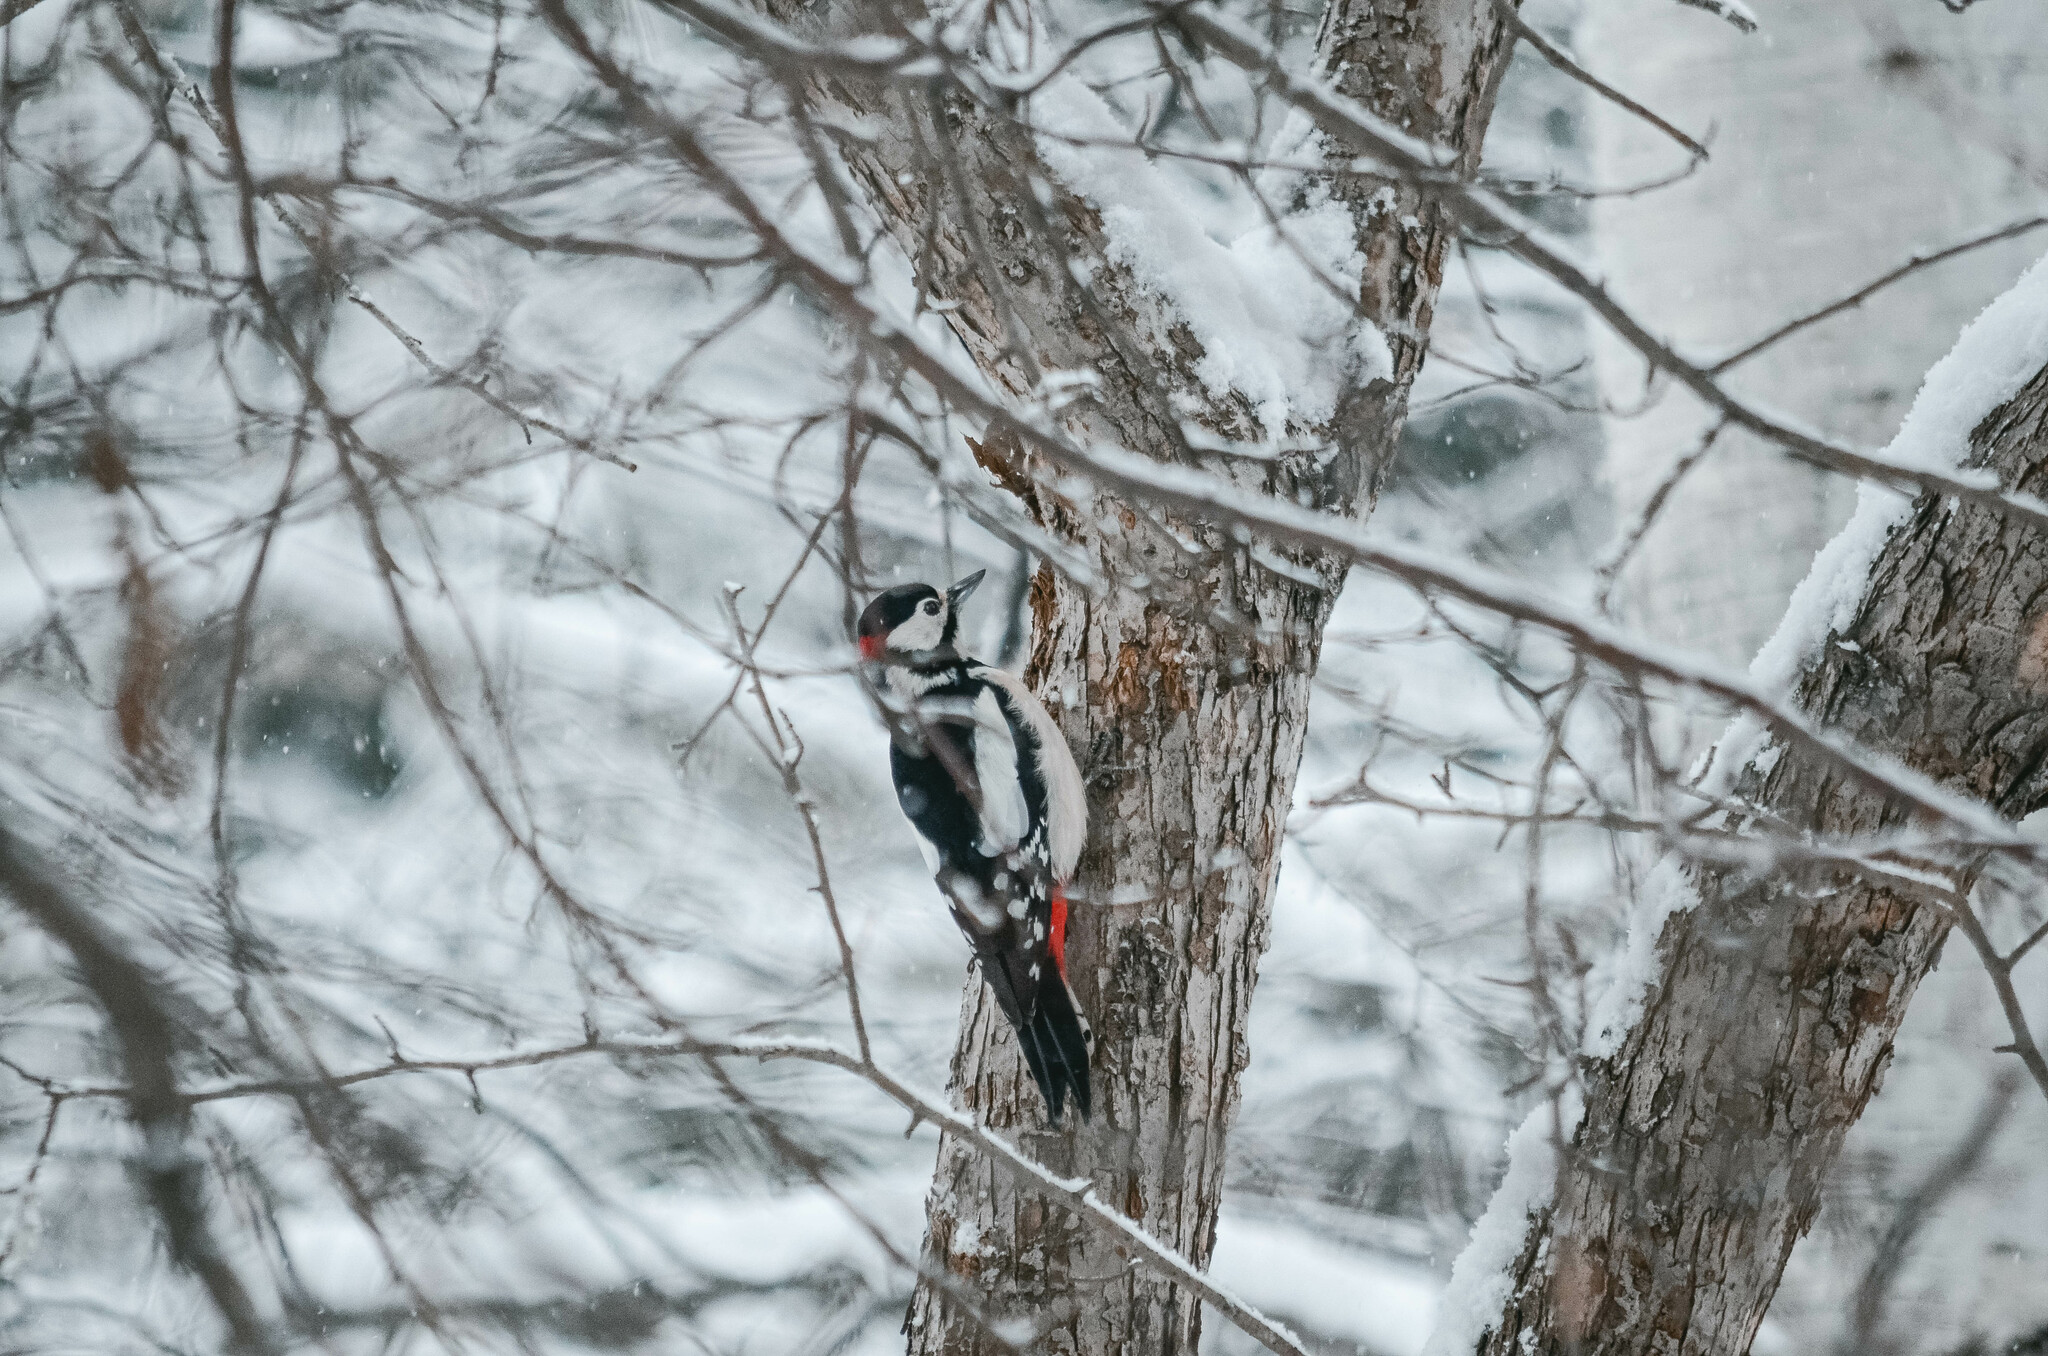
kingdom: Animalia
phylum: Chordata
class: Aves
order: Piciformes
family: Picidae
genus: Dendrocopos
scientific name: Dendrocopos major
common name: Great spotted woodpecker
